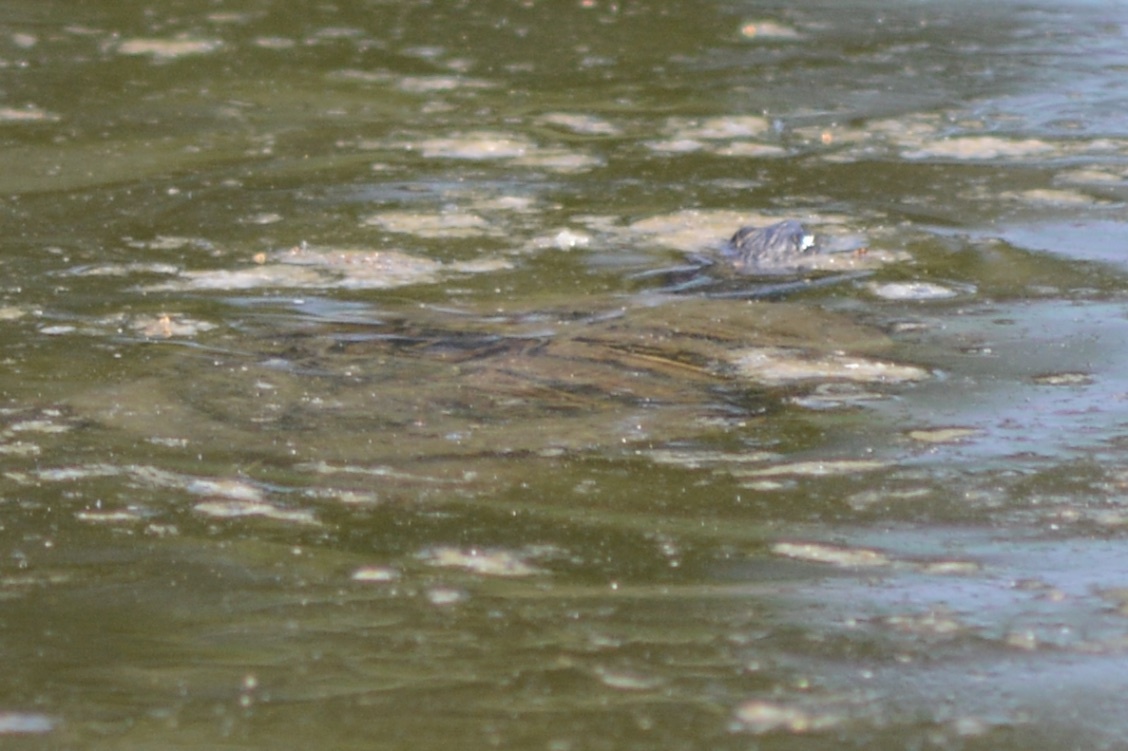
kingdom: Animalia
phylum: Chordata
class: Testudines
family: Emydidae
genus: Trachemys
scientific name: Trachemys scripta
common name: Slider
